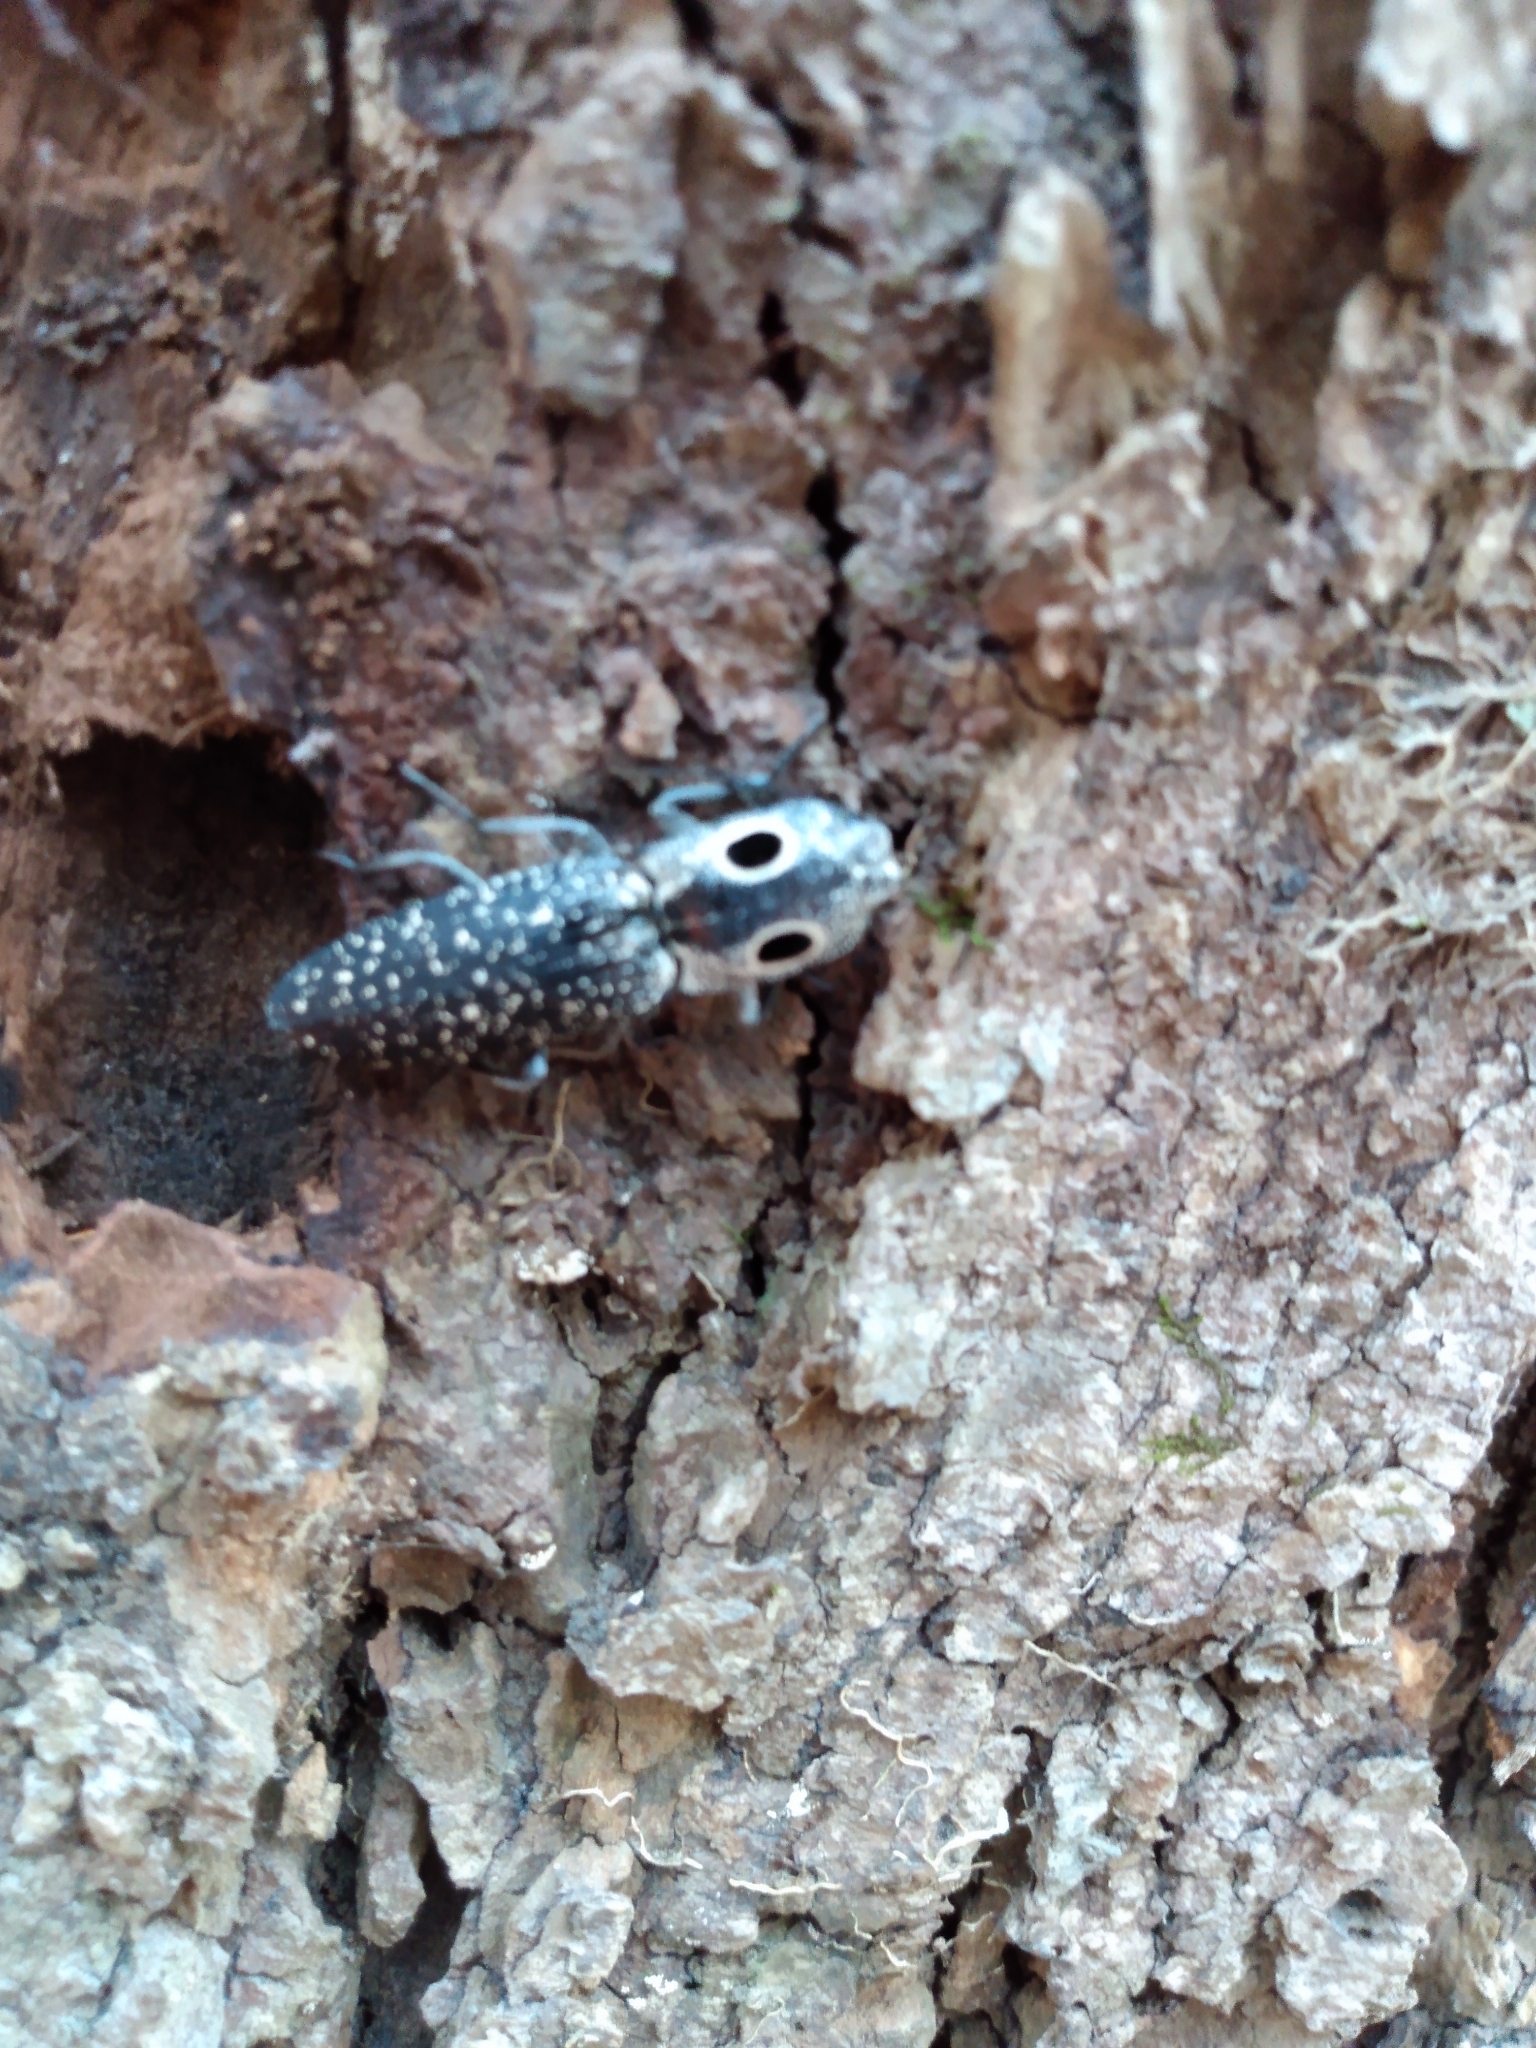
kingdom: Animalia
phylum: Arthropoda
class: Insecta
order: Coleoptera
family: Elateridae
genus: Alaus
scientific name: Alaus oculatus
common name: Eastern eyed click beetle
